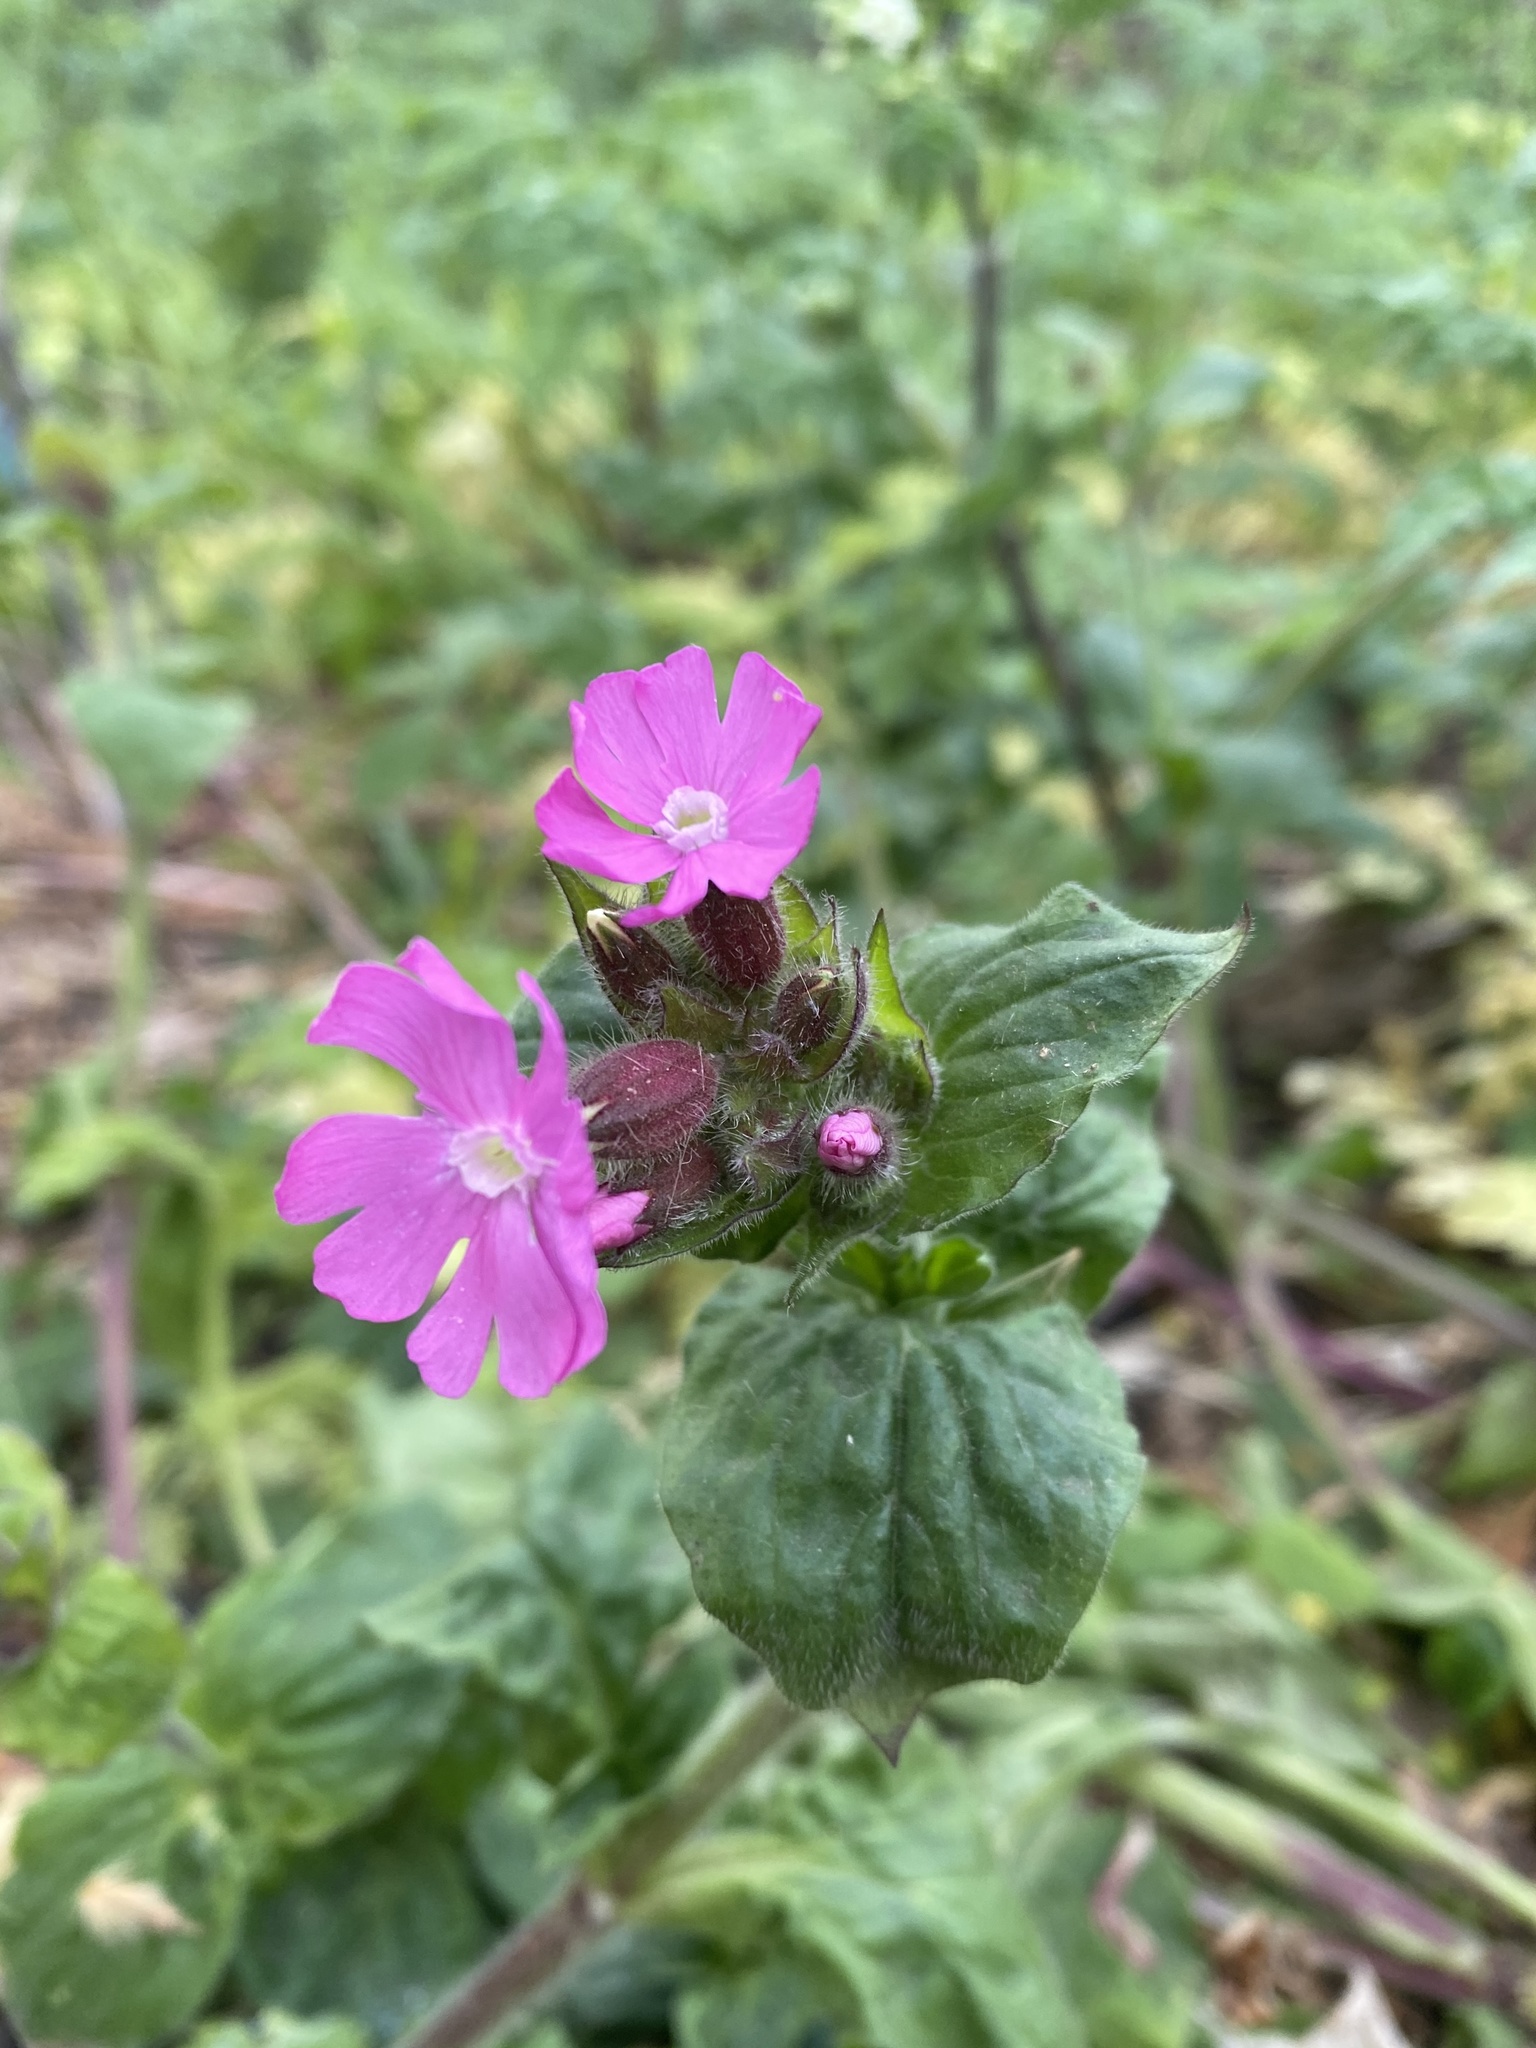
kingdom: Plantae
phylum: Tracheophyta
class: Magnoliopsida
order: Caryophyllales
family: Caryophyllaceae
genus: Silene
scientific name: Silene dioica
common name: Red campion
